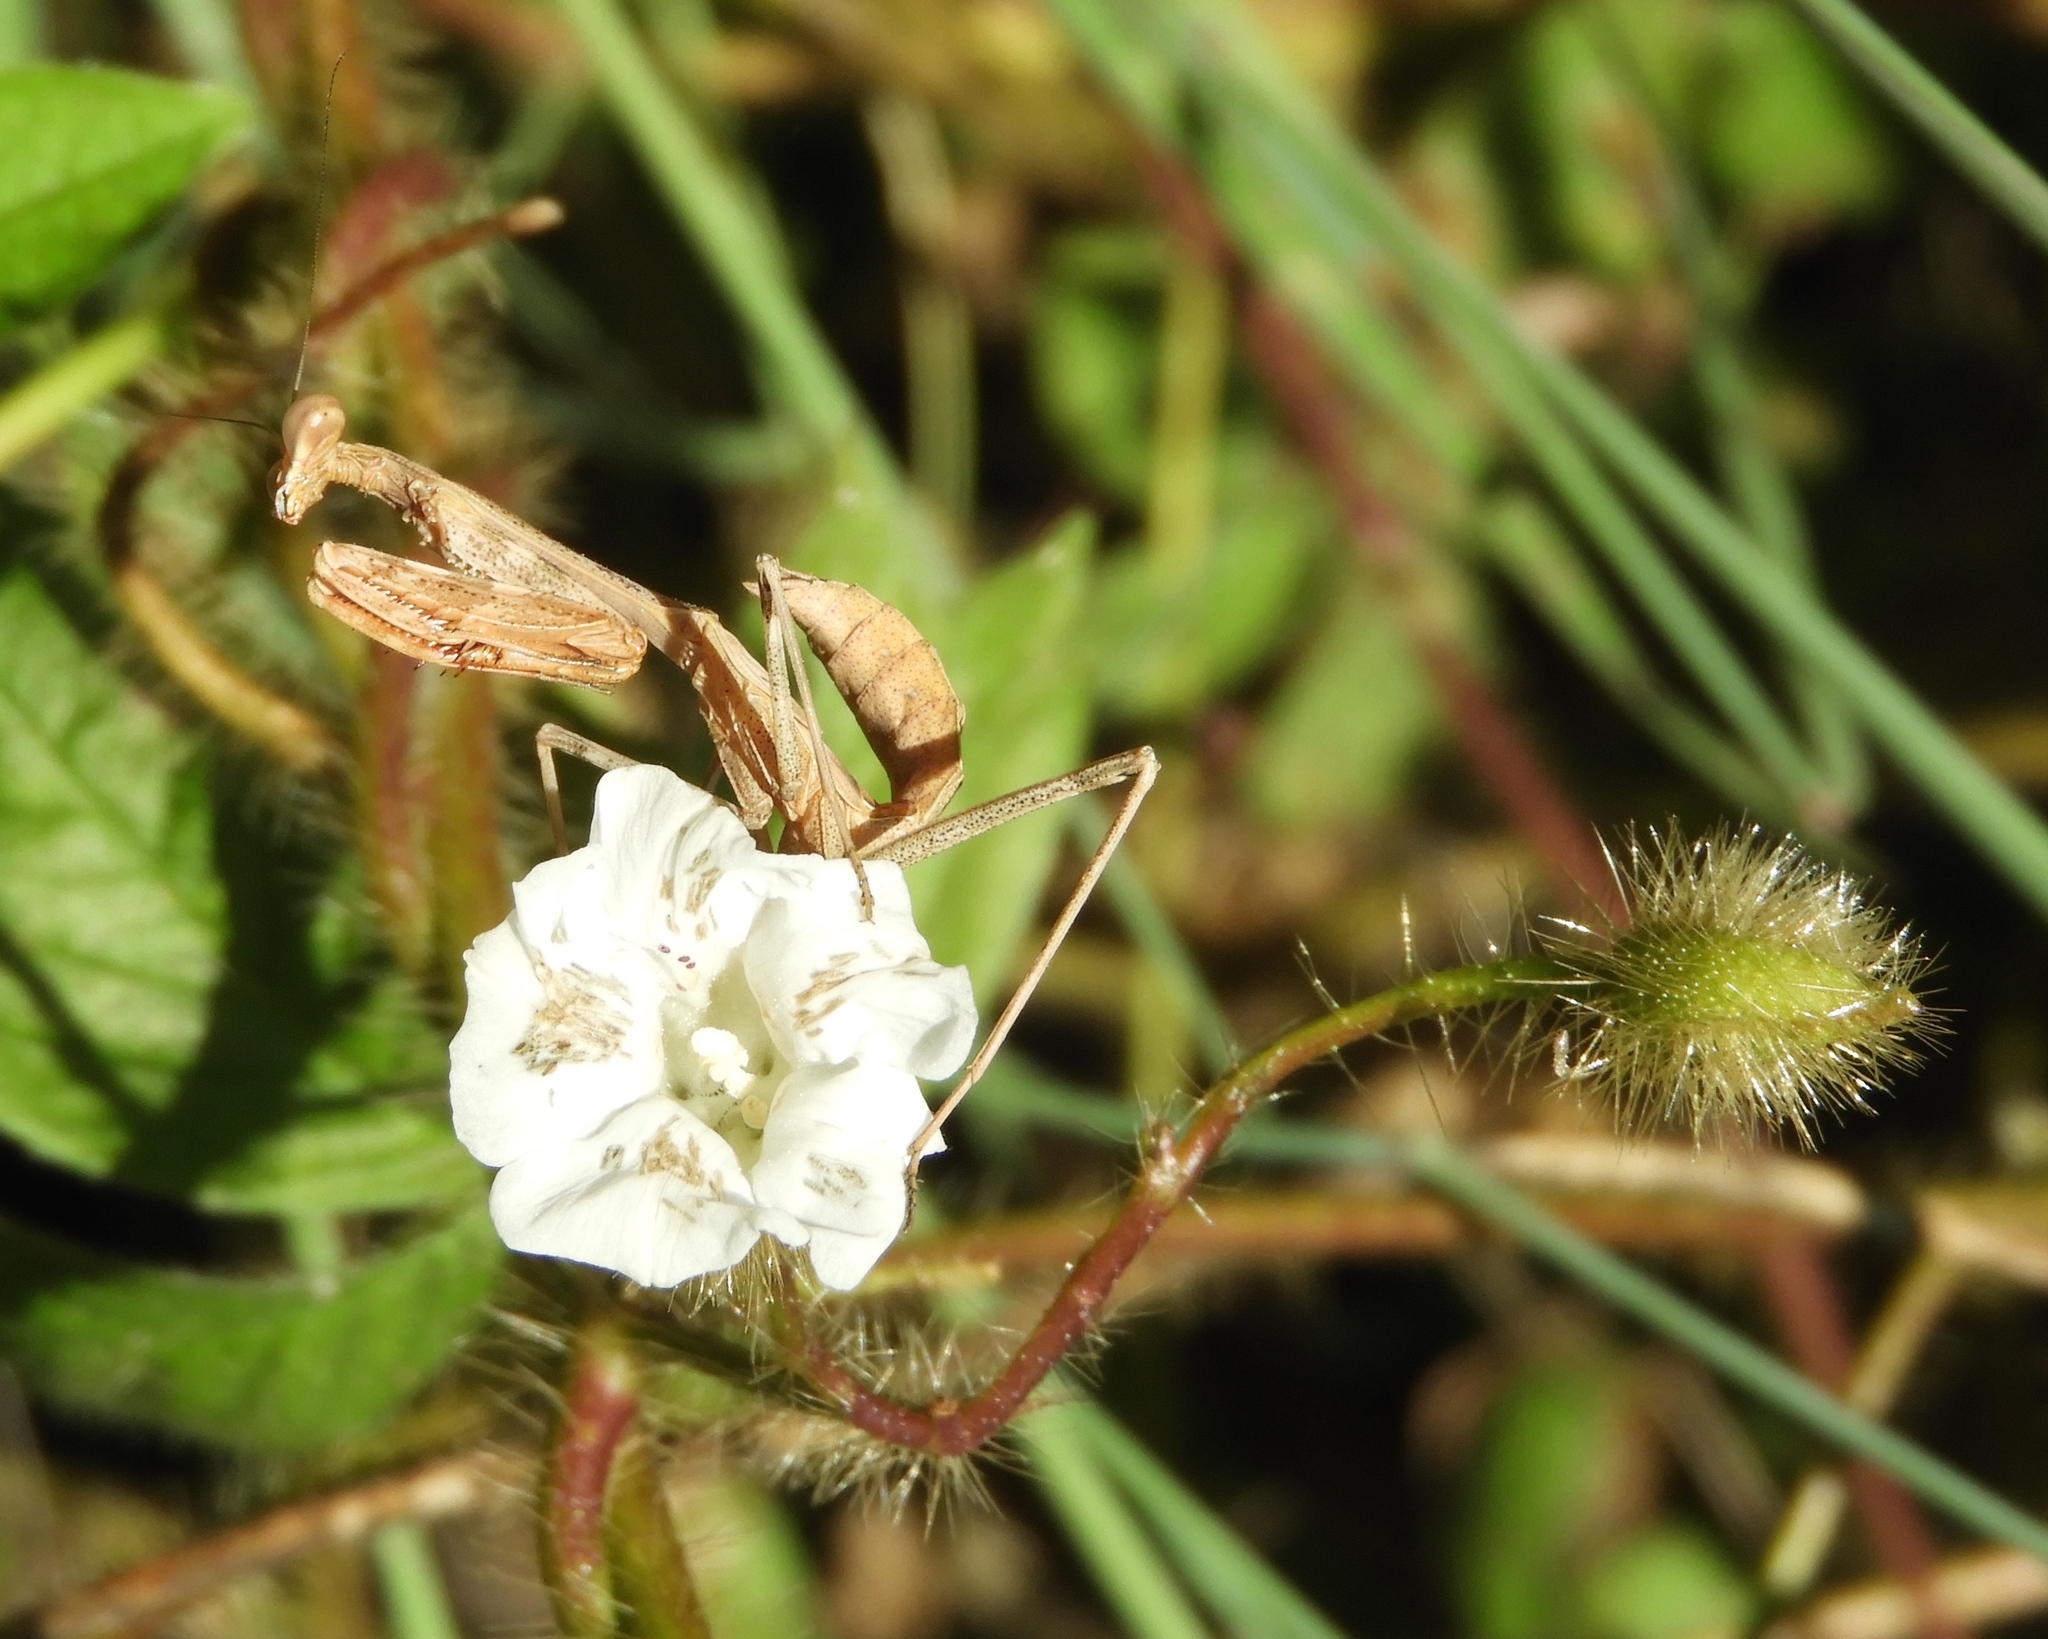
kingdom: Animalia
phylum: Arthropoda
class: Insecta
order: Mantodea
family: Mantidae
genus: Stagmomantis
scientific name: Stagmomantis
